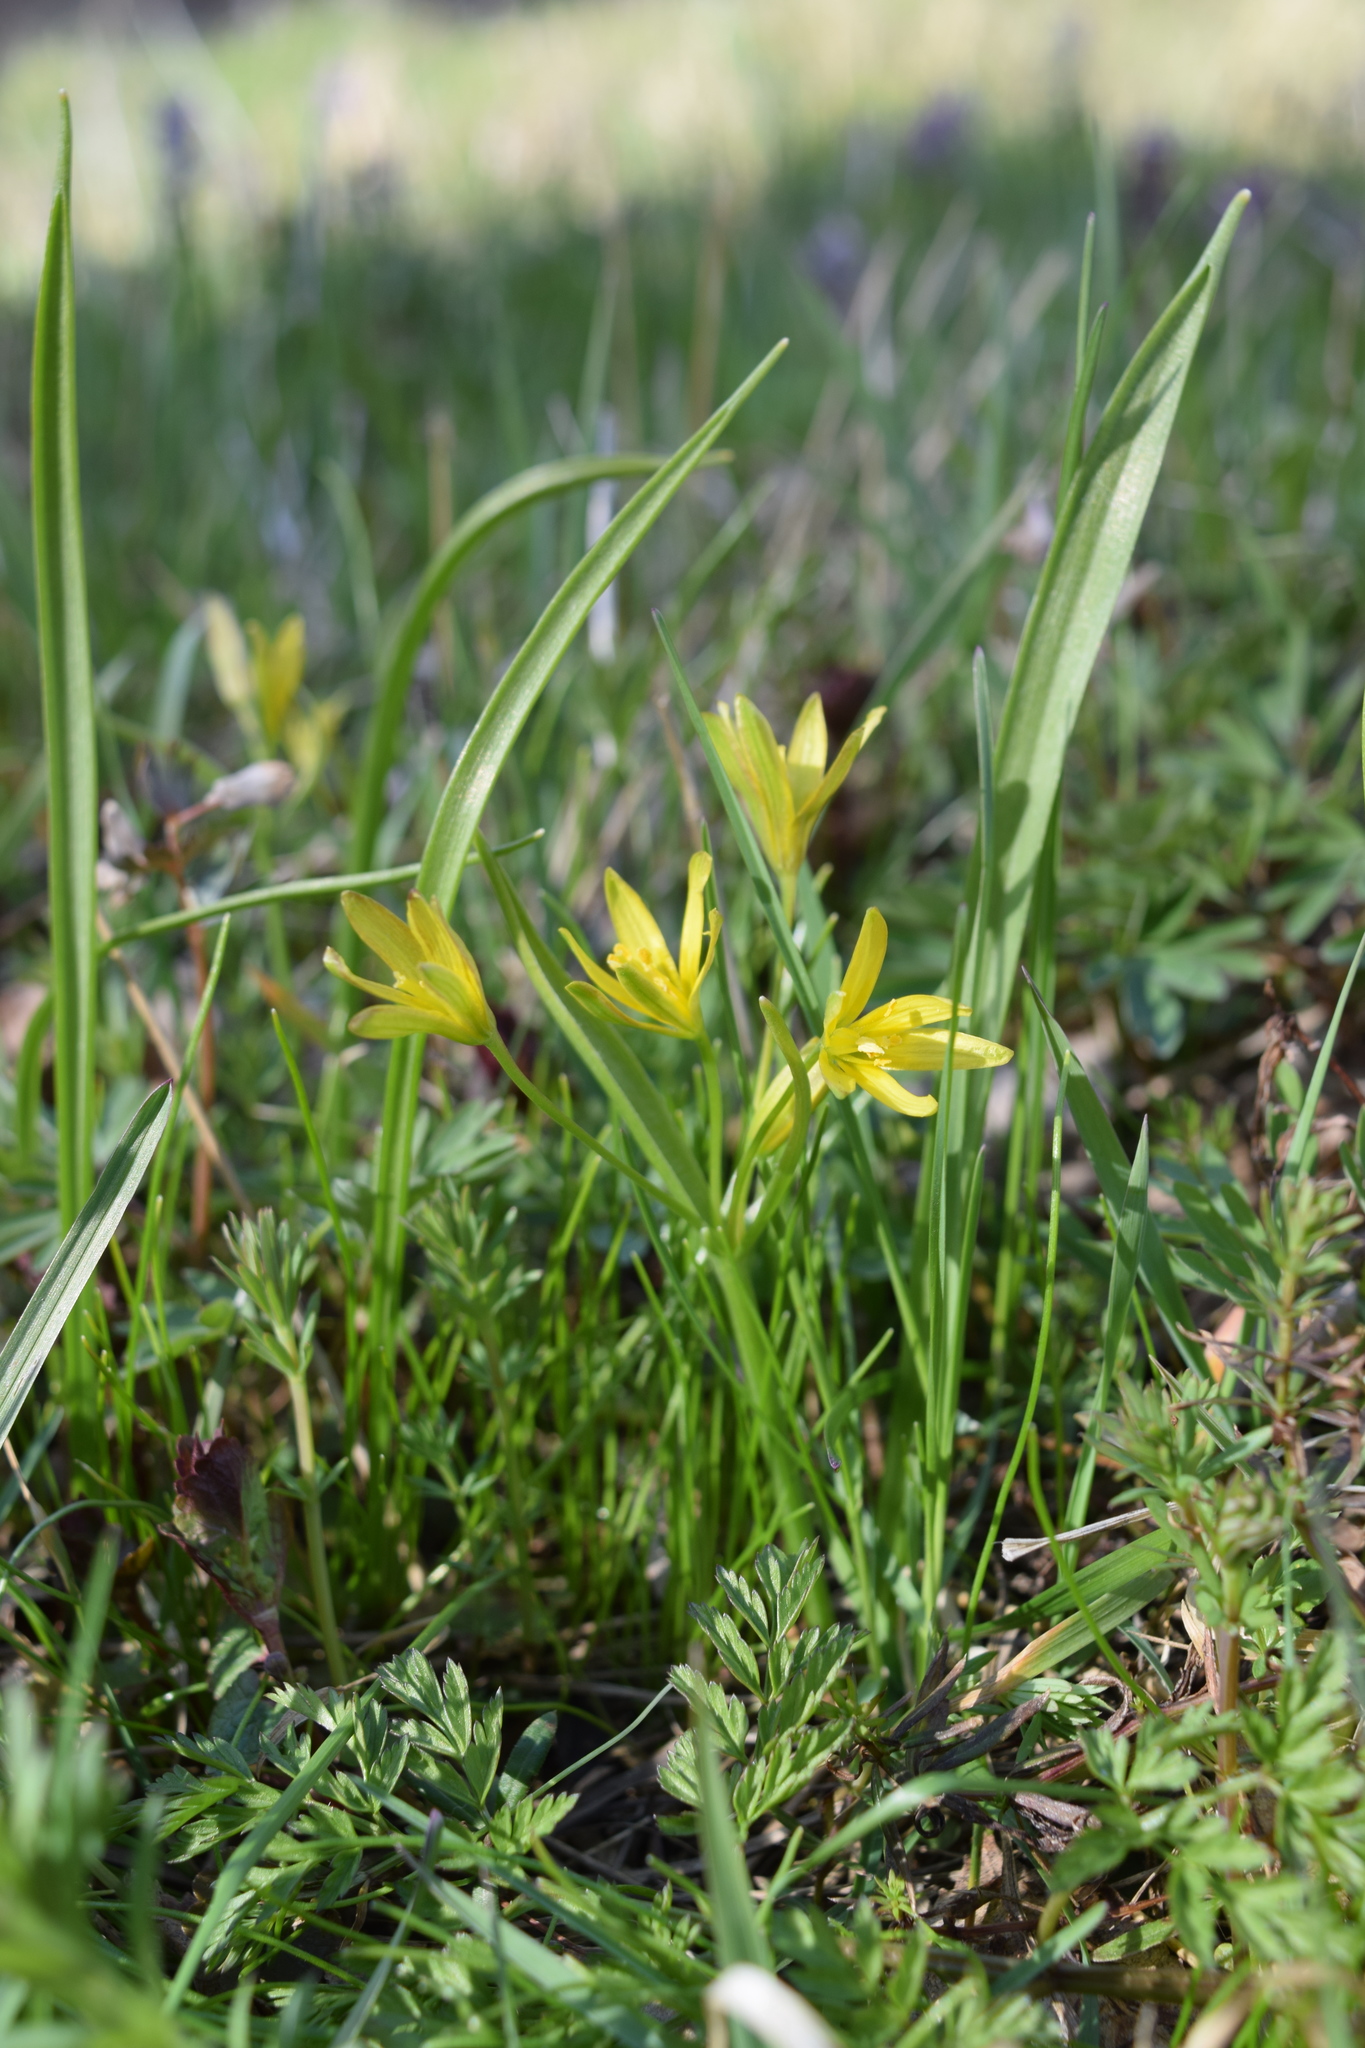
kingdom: Plantae
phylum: Tracheophyta
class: Liliopsida
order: Liliales
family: Liliaceae
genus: Gagea
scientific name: Gagea lutea
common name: Yellow star-of-bethlehem
